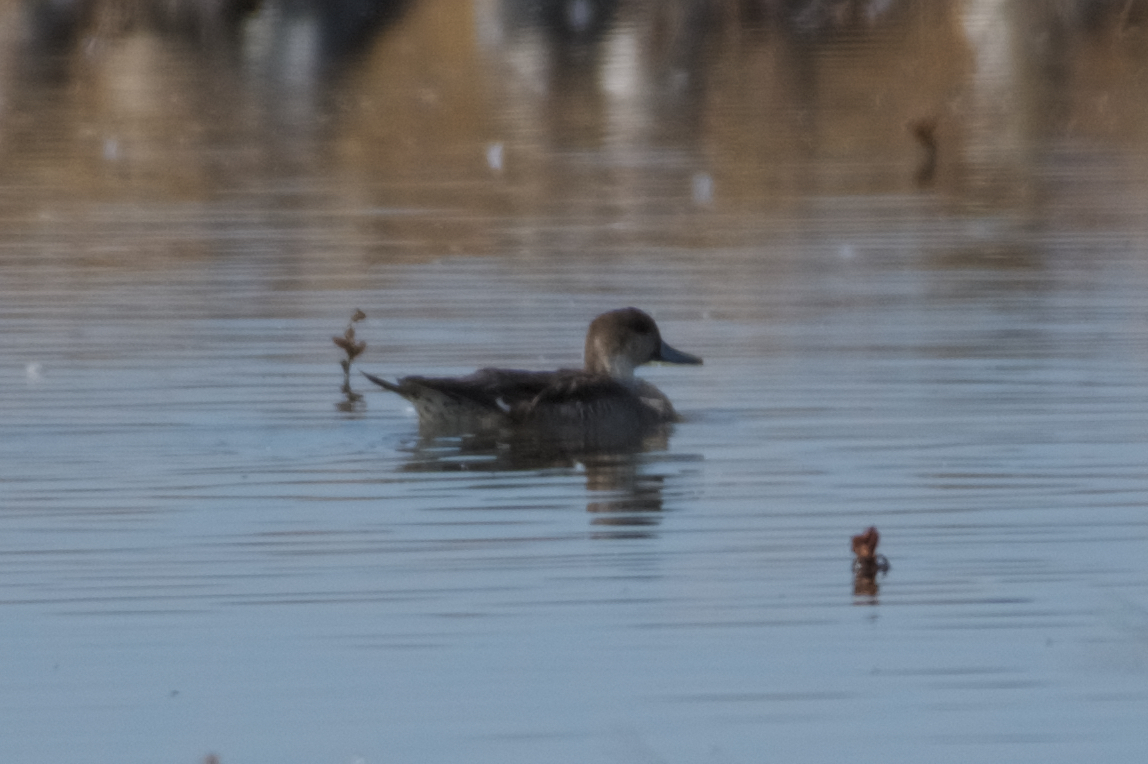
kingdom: Animalia
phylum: Chordata
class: Aves
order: Anseriformes
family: Anatidae
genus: Anas
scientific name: Anas acuta
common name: Northern pintail
